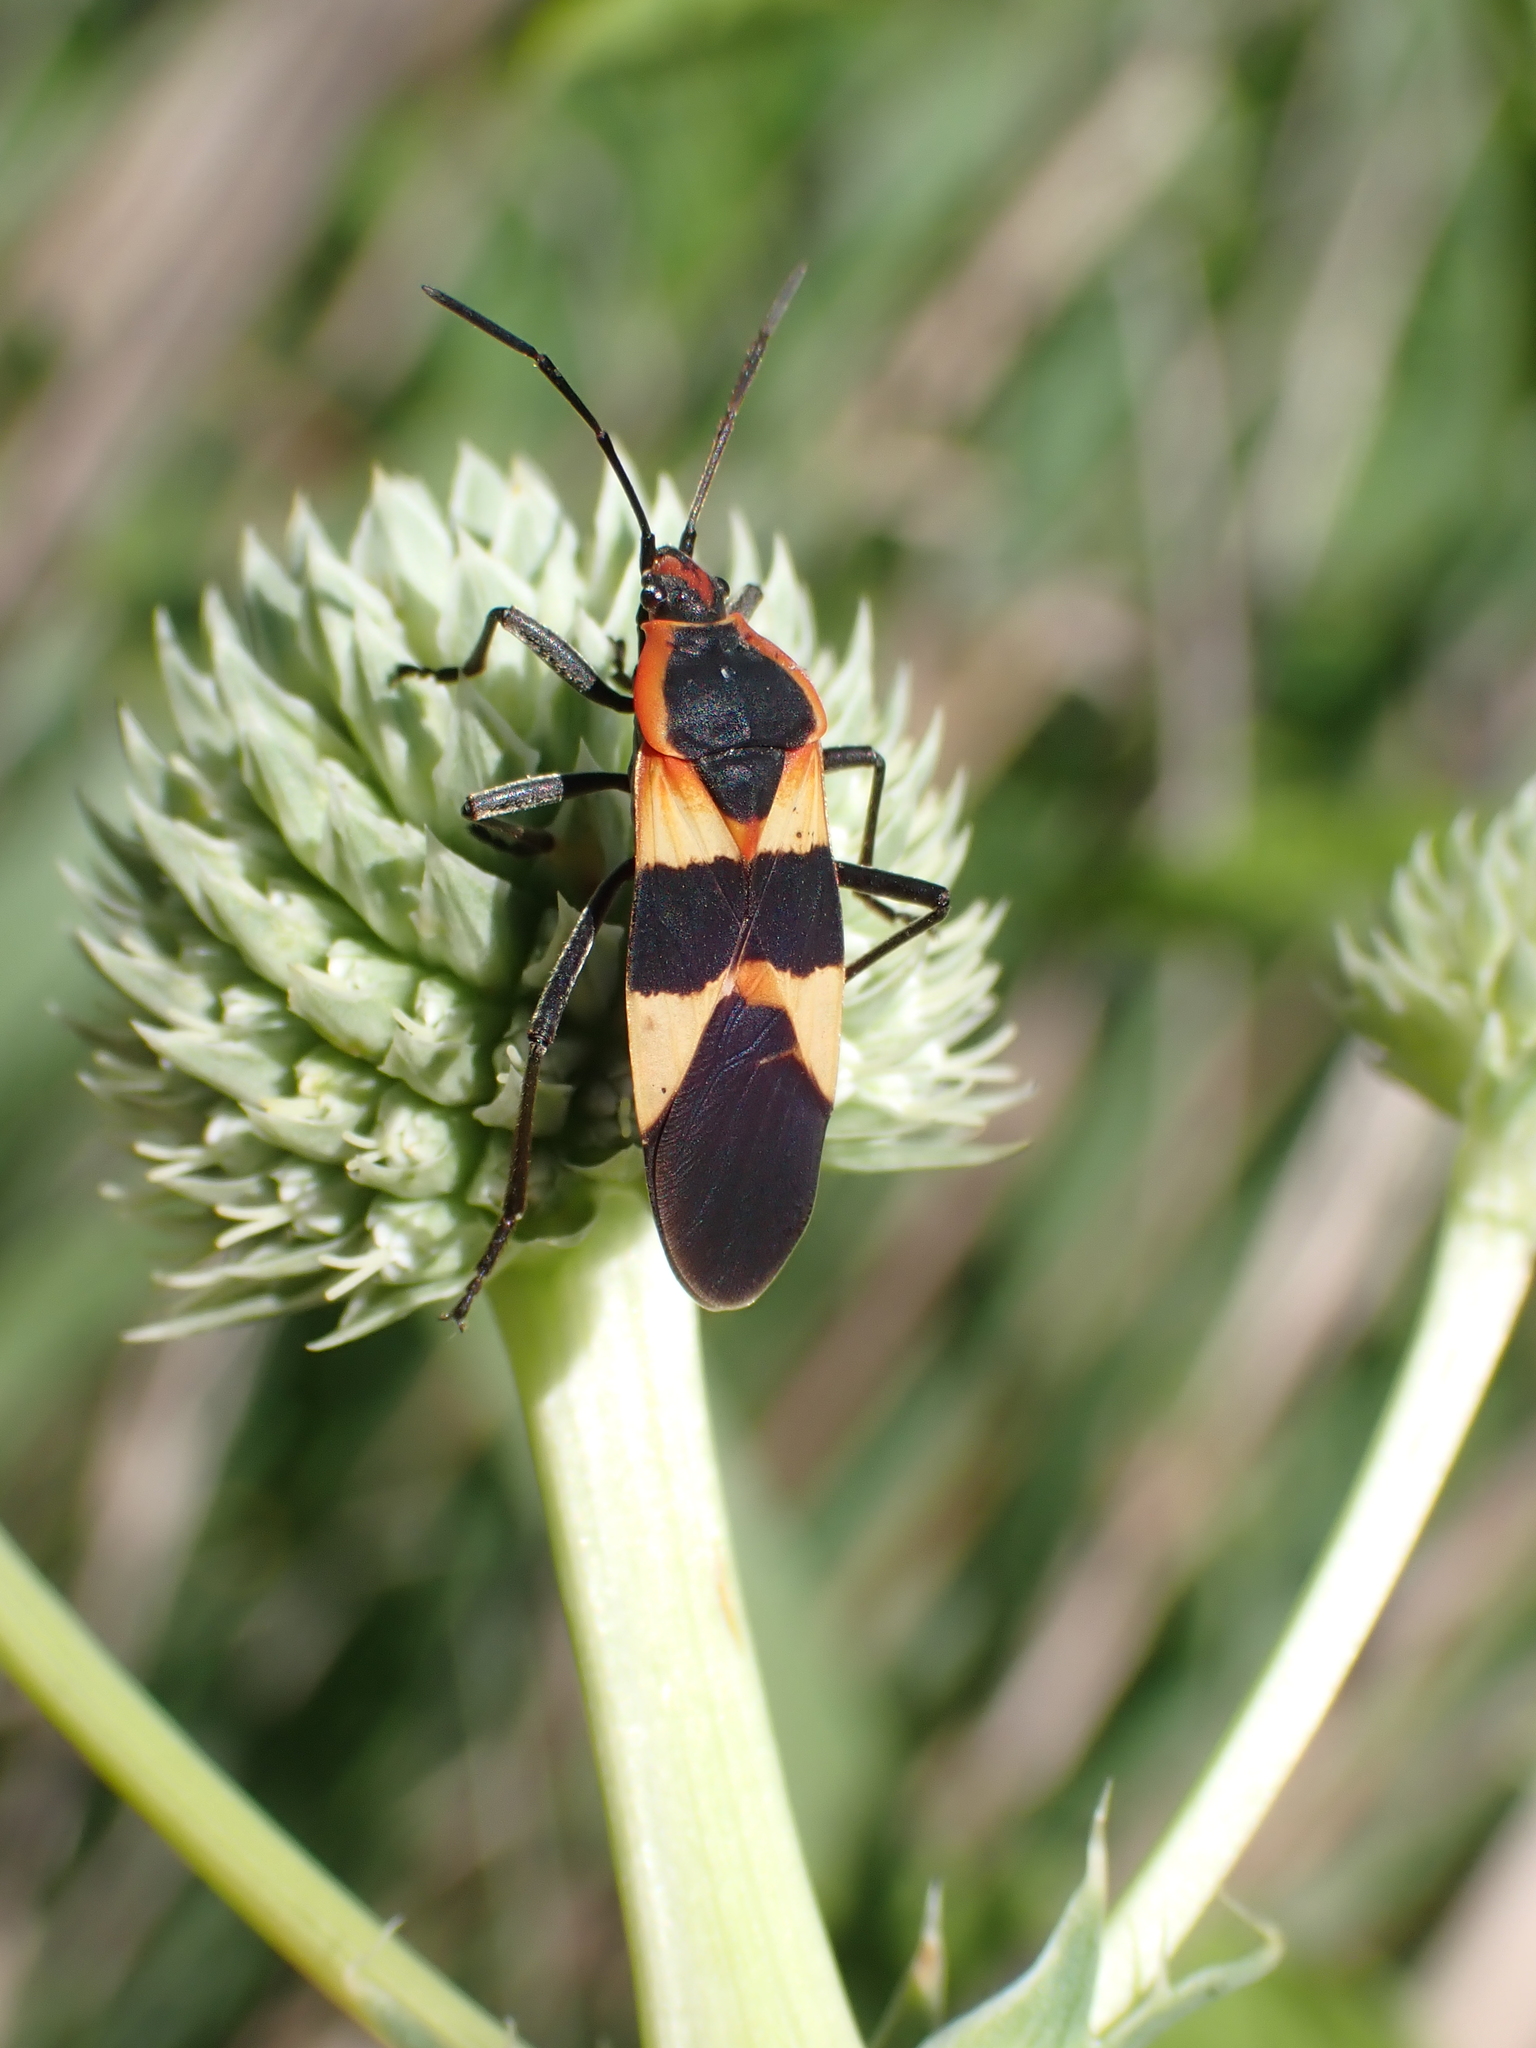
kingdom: Animalia
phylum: Arthropoda
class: Insecta
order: Hemiptera
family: Lygaeidae
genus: Oncopeltus
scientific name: Oncopeltus fasciatus
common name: Large milkweed bug
